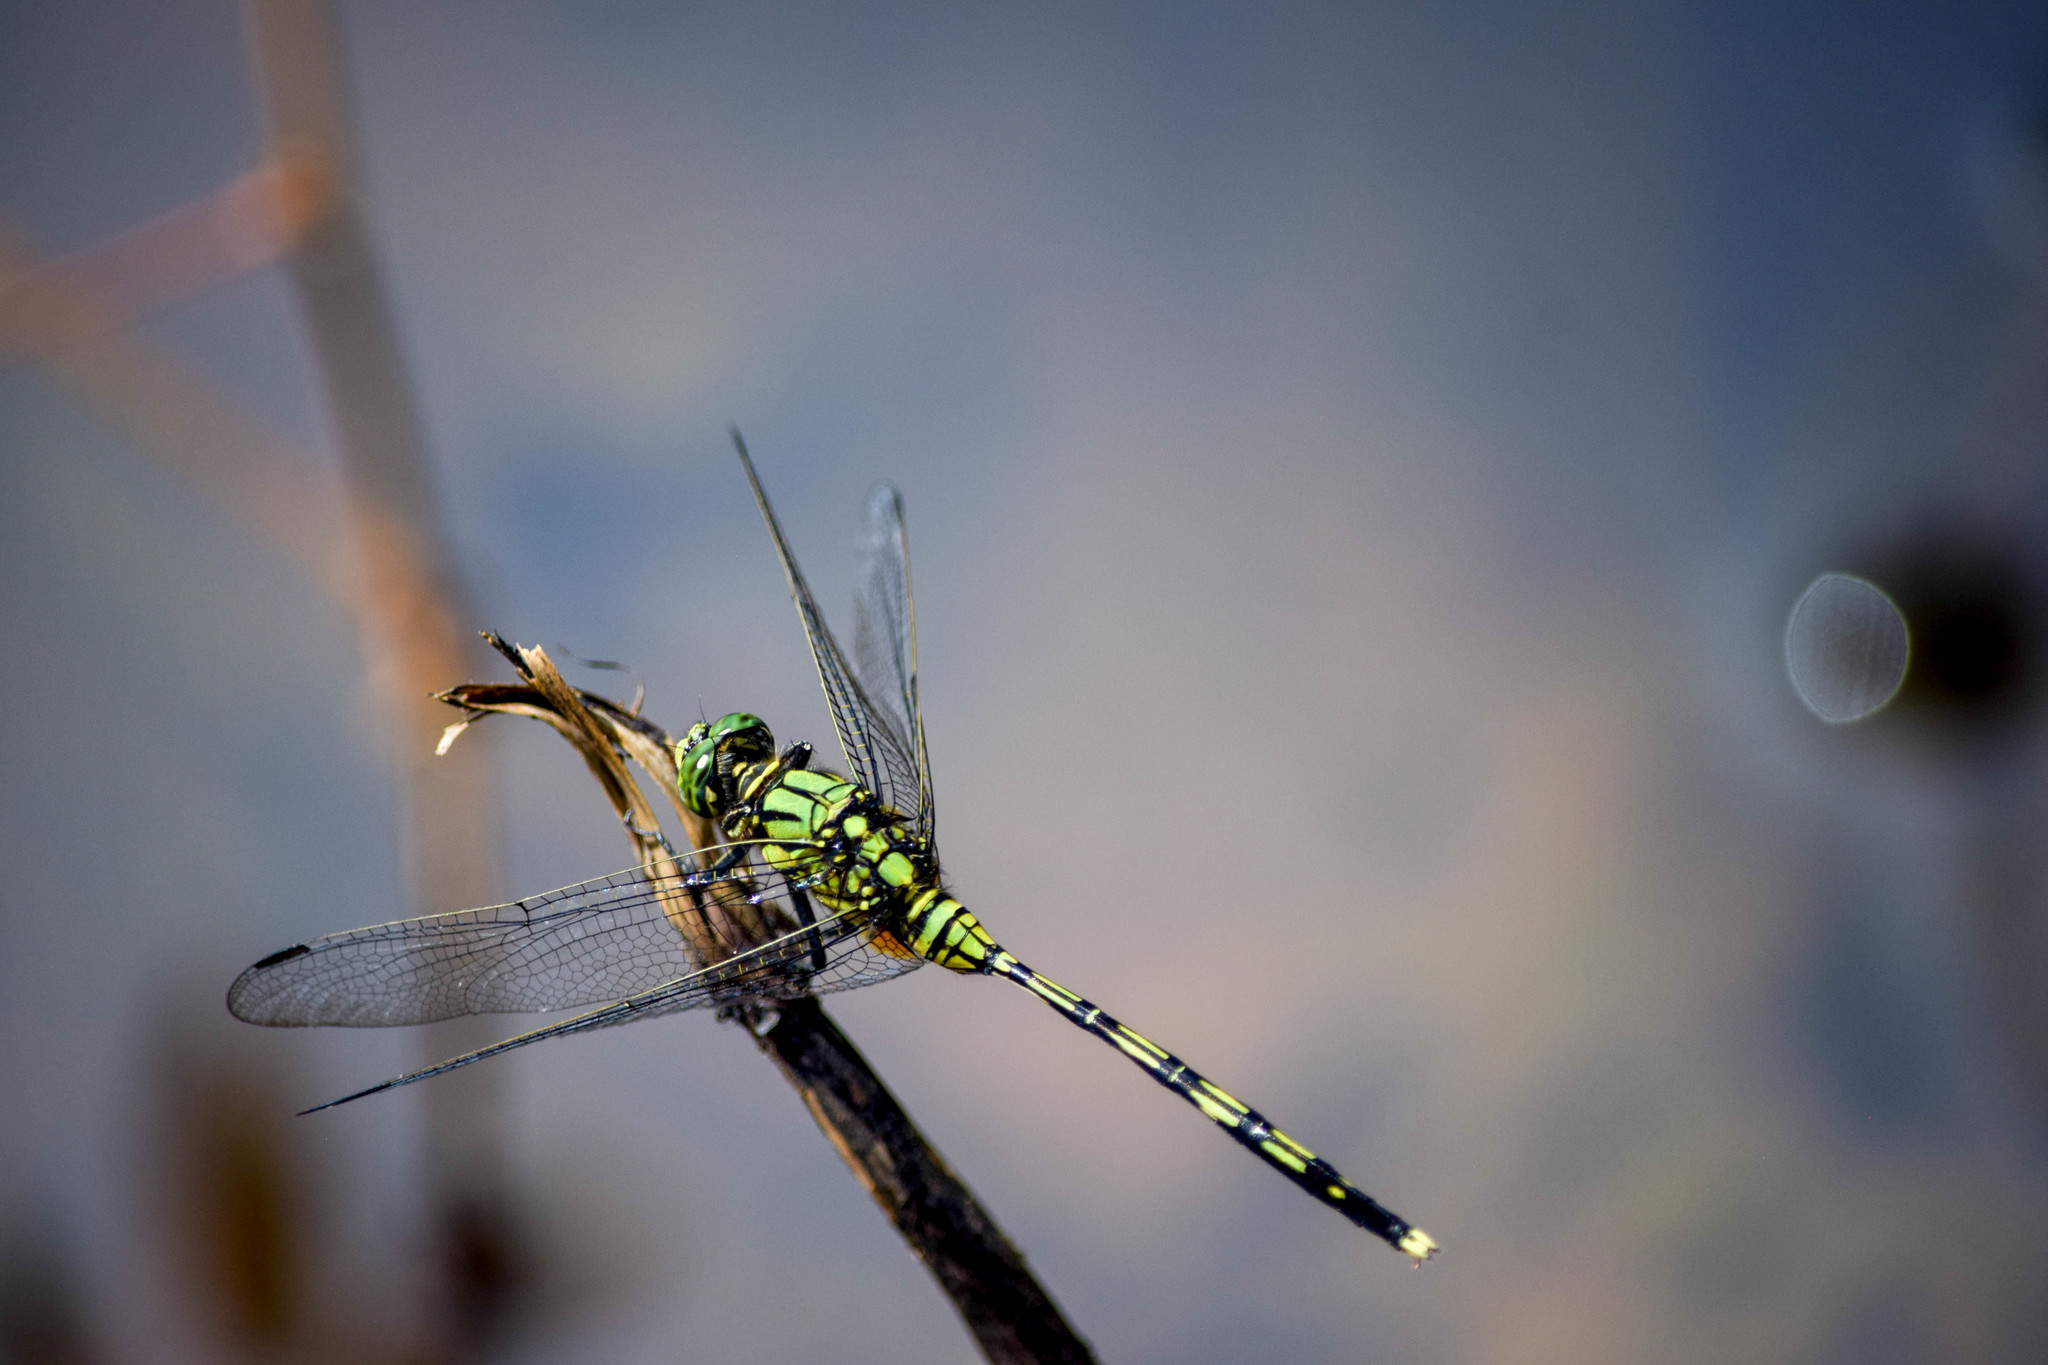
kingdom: Animalia
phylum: Arthropoda
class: Insecta
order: Odonata
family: Libellulidae
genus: Orthetrum
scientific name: Orthetrum serapia
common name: Green skimmer
